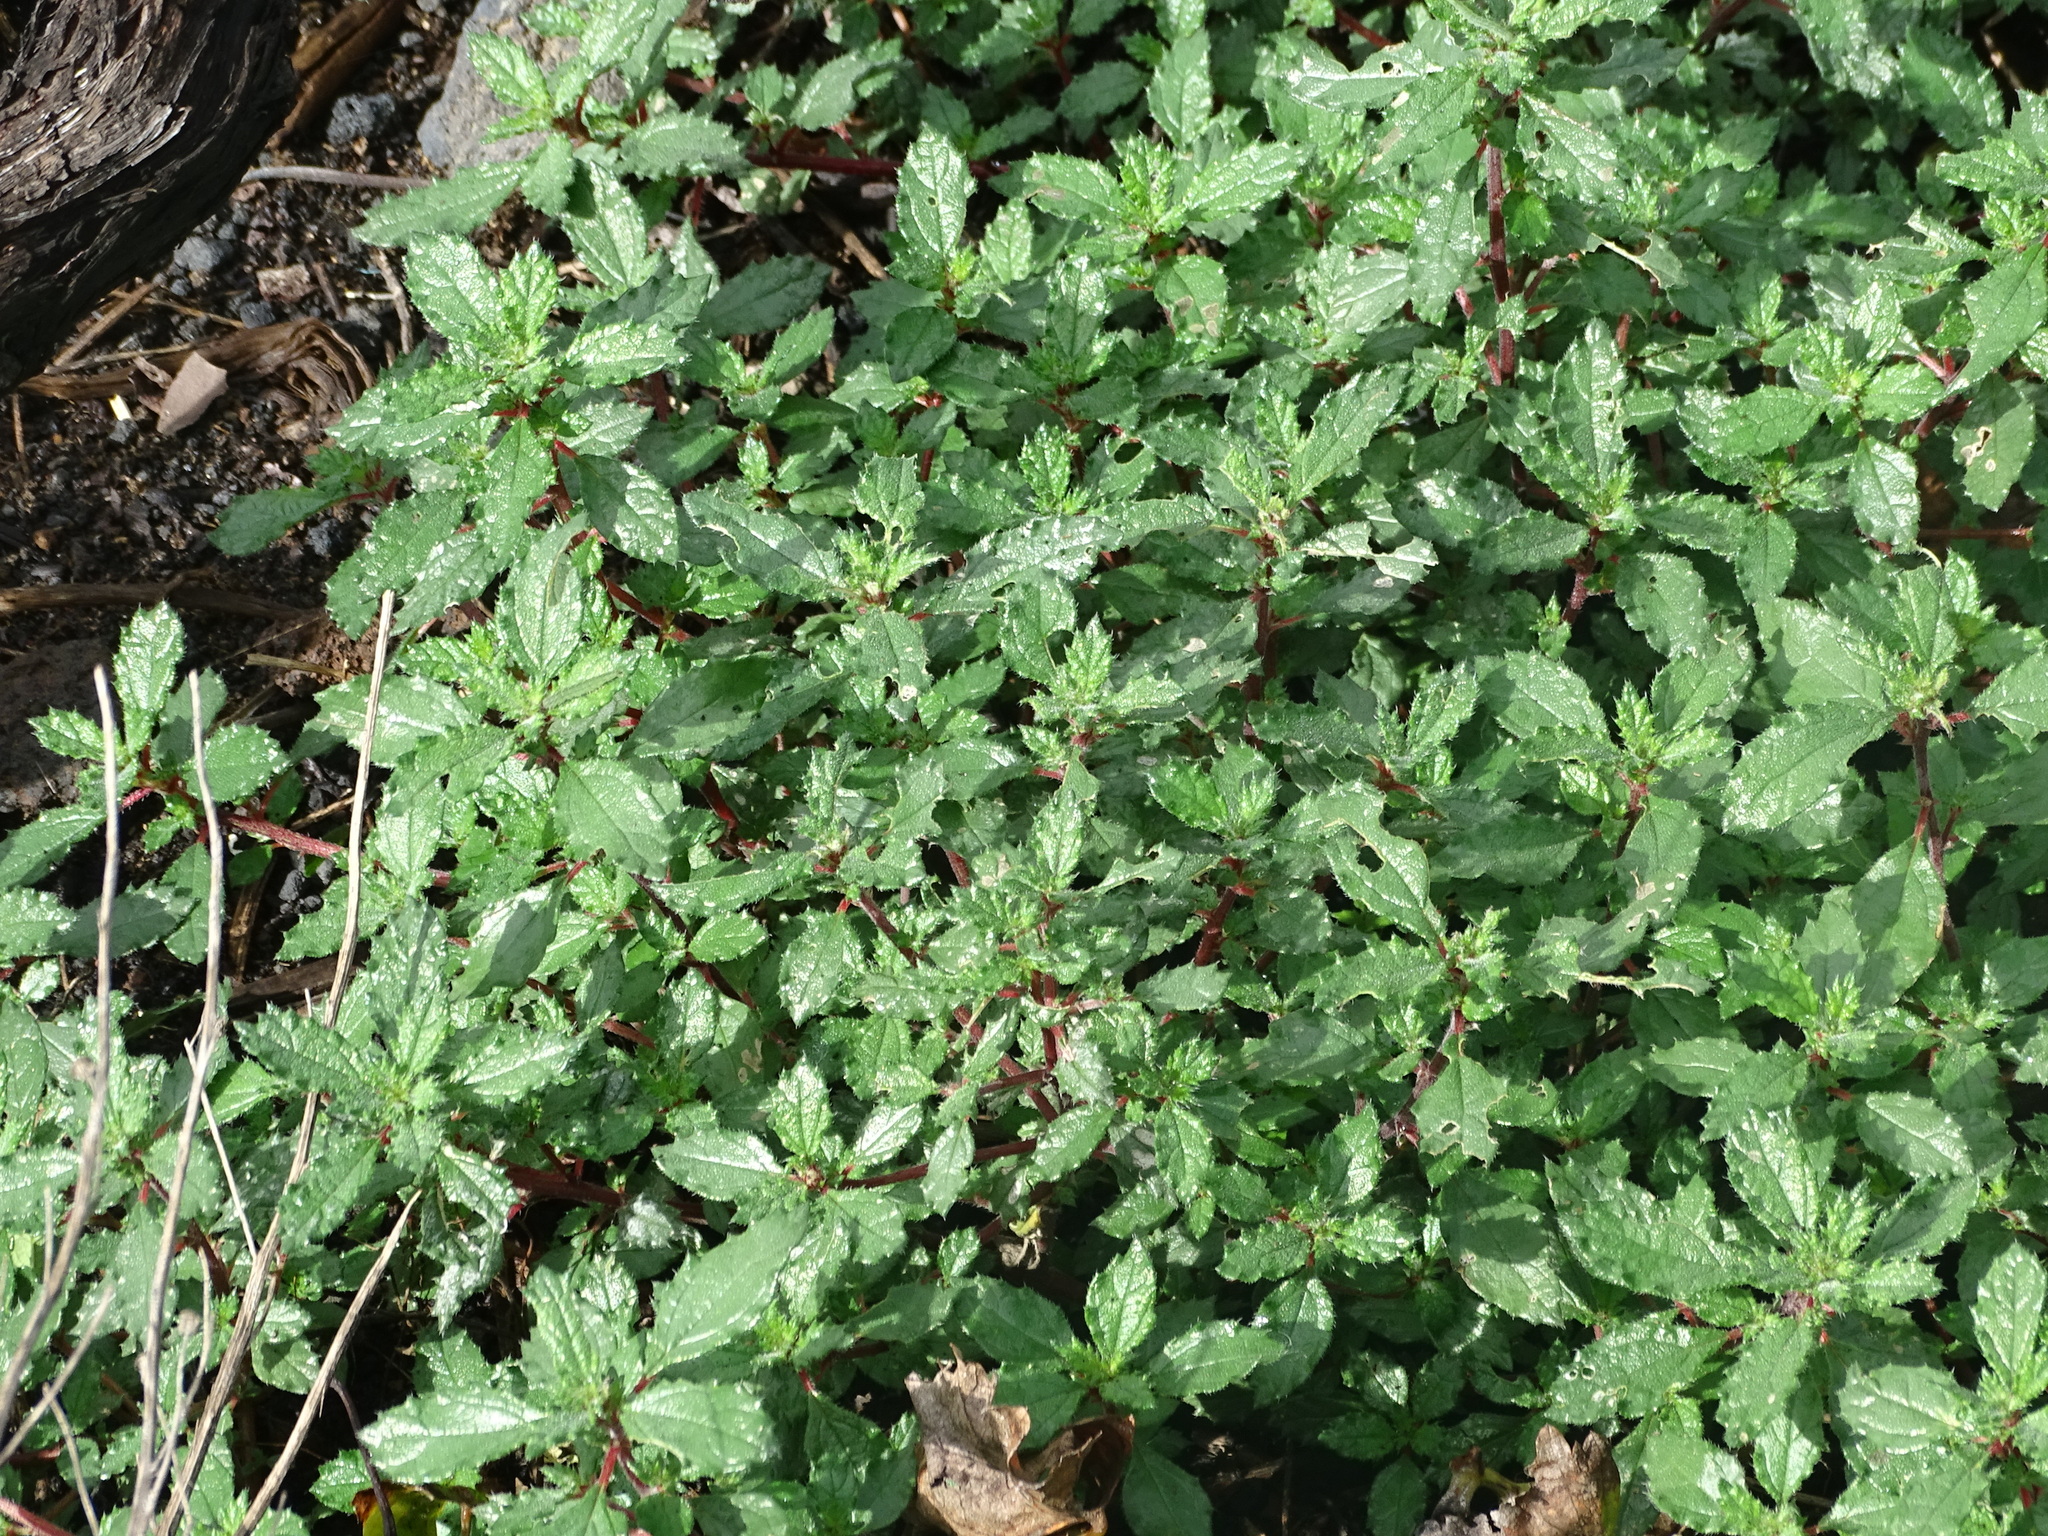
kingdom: Plantae
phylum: Tracheophyta
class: Magnoliopsida
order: Rosales
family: Urticaceae
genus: Forsskaolea
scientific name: Forsskaolea angustifolia
